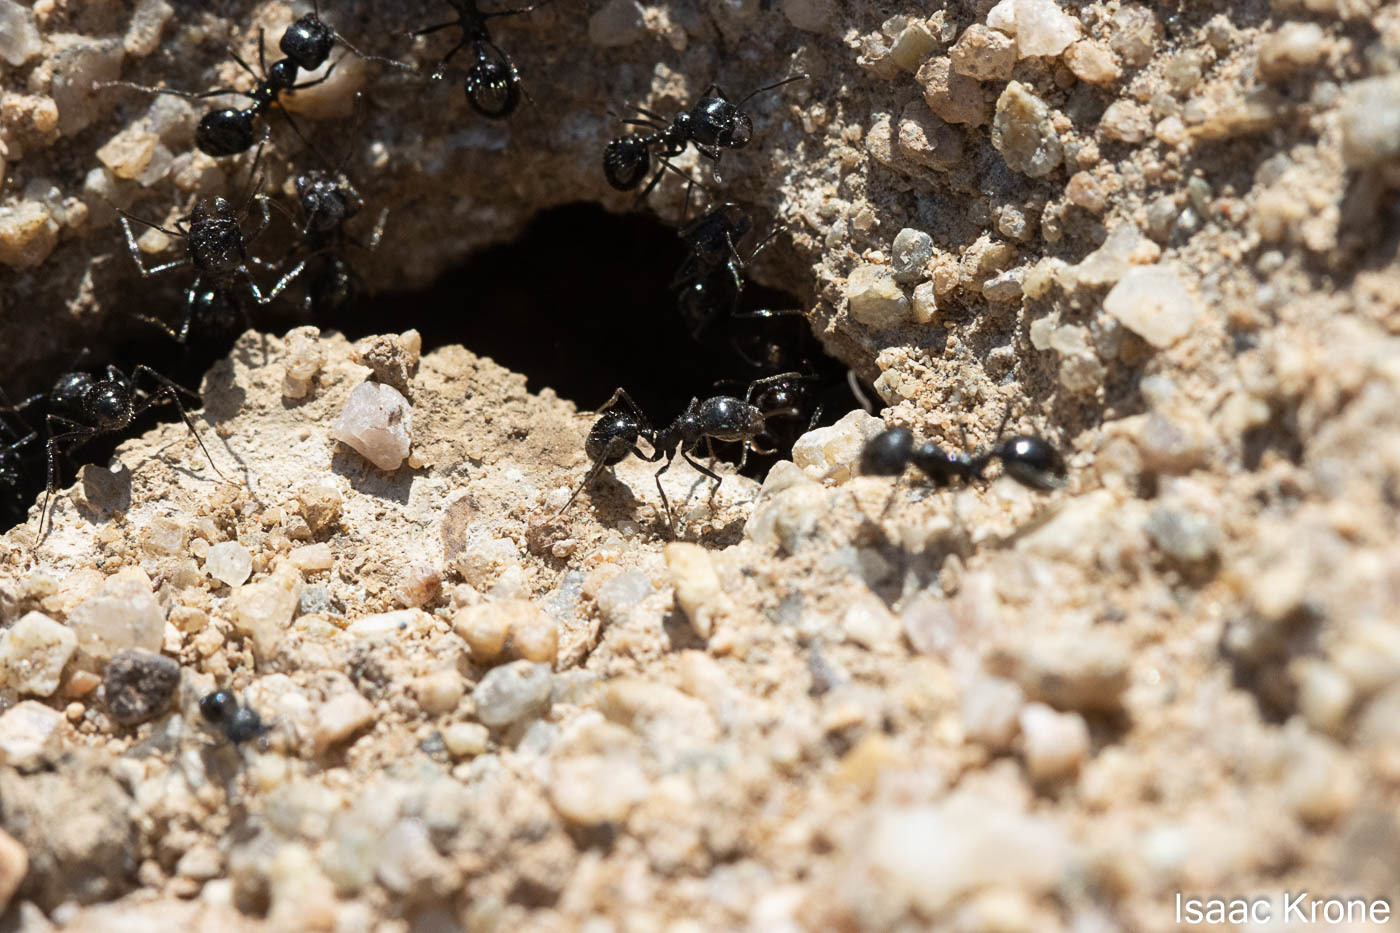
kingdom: Animalia
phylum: Arthropoda
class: Insecta
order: Hymenoptera
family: Formicidae
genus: Messor
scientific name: Messor pergandei
